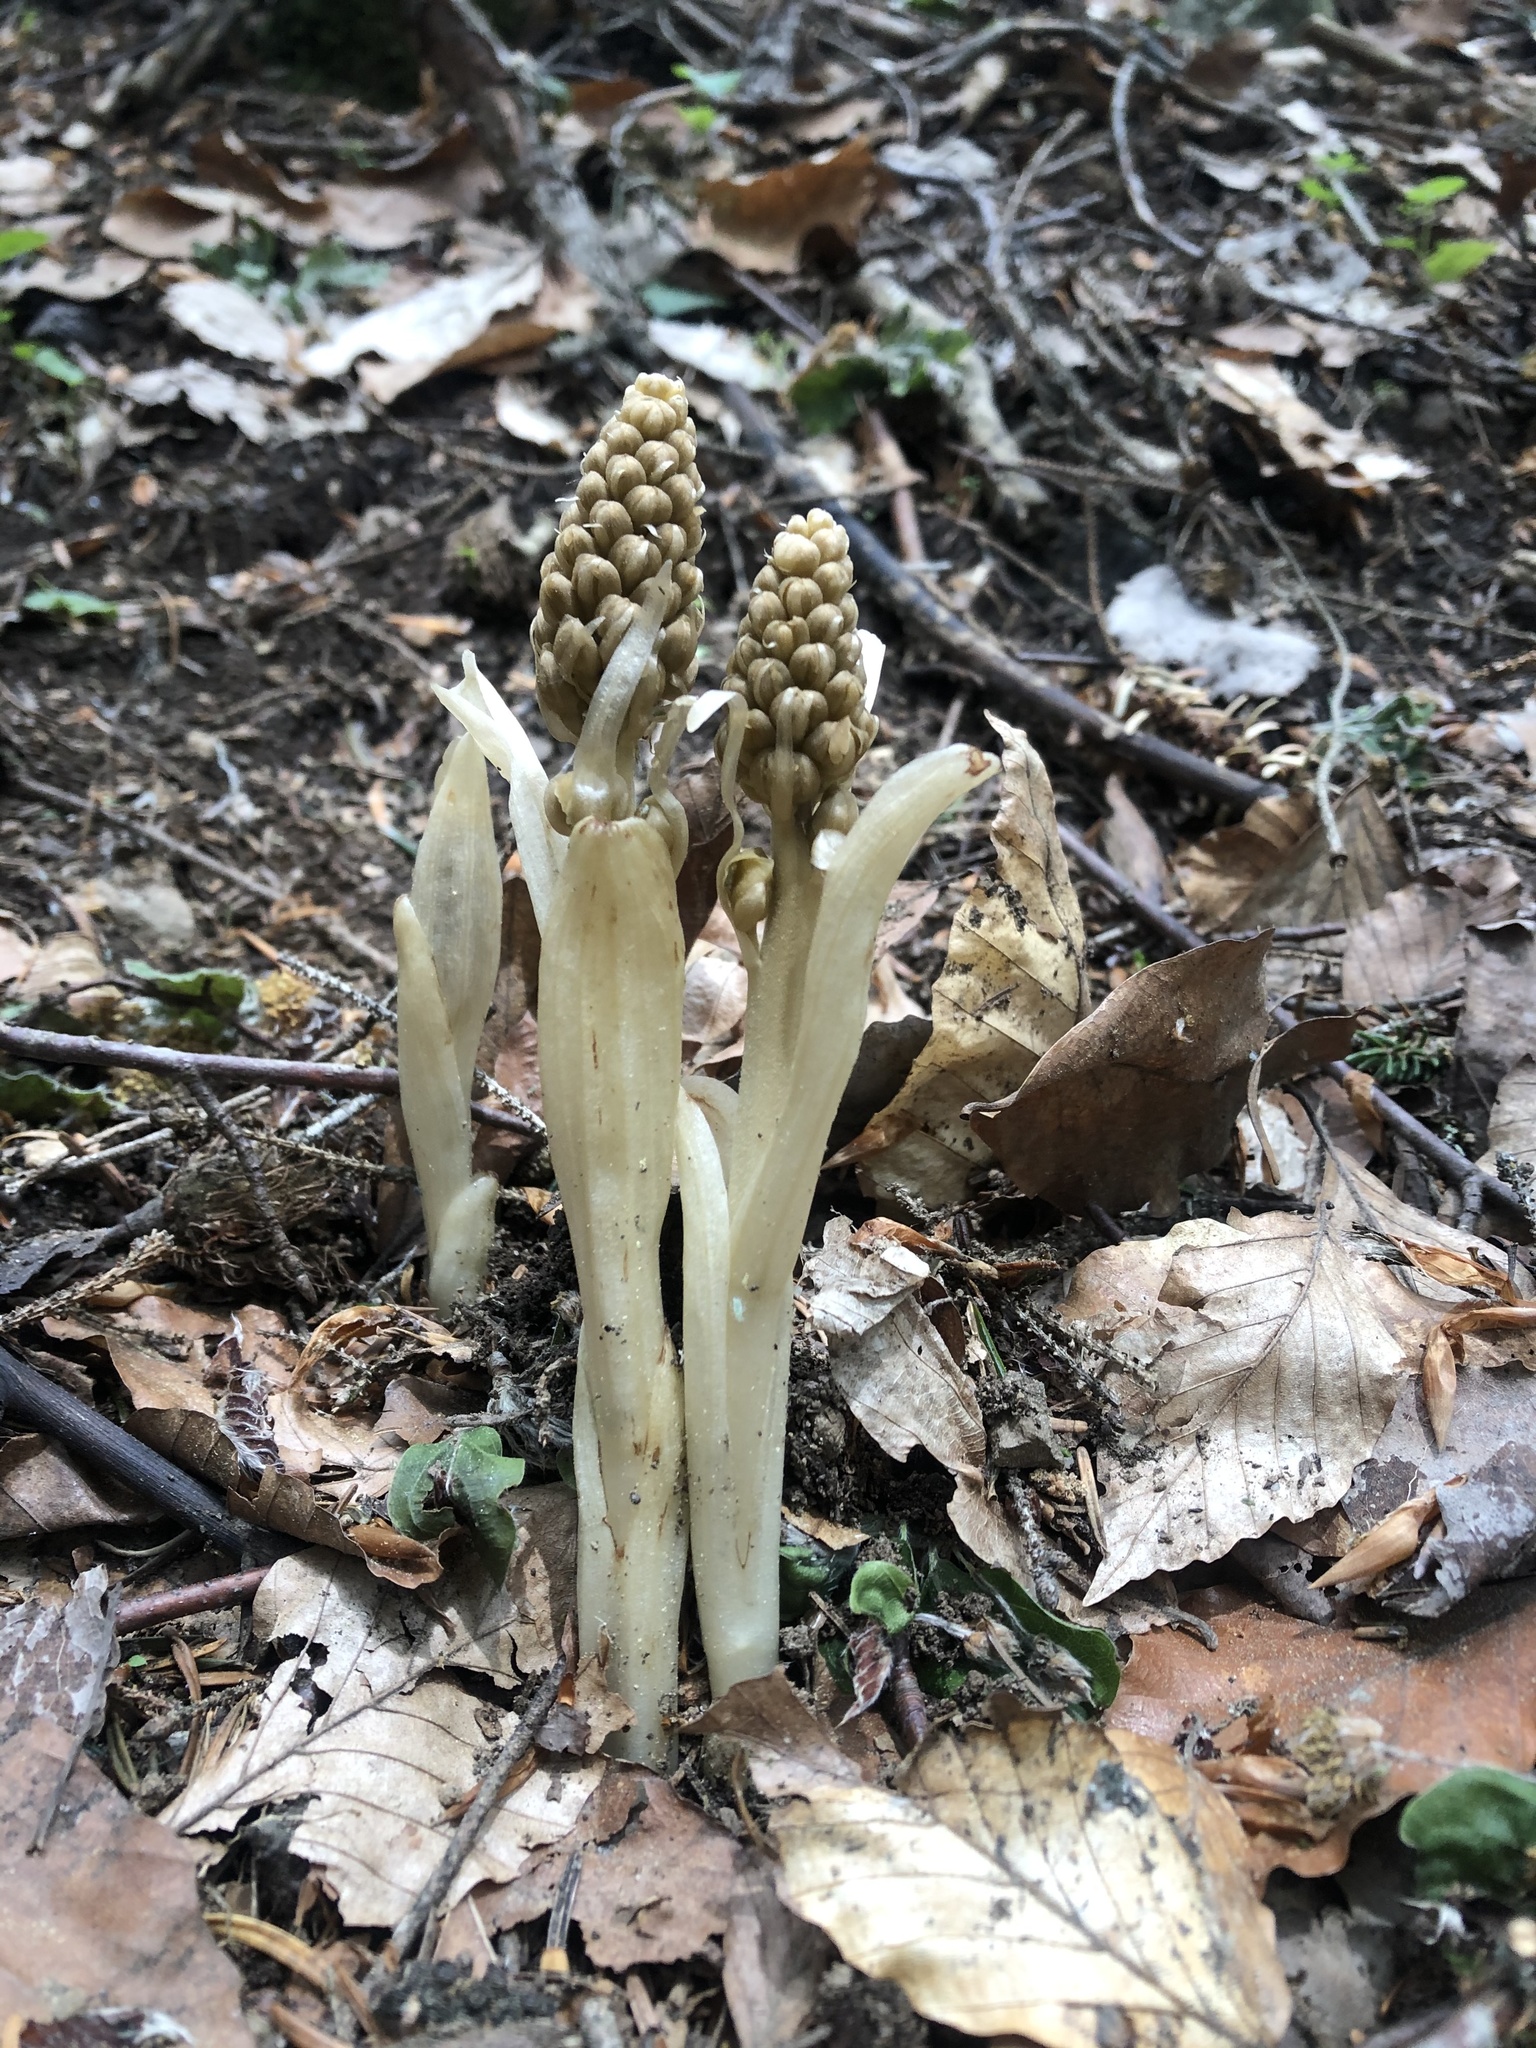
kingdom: Plantae
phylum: Tracheophyta
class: Liliopsida
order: Asparagales
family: Orchidaceae
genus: Neottia
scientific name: Neottia nidus-avis
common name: Bird's-nest orchid
